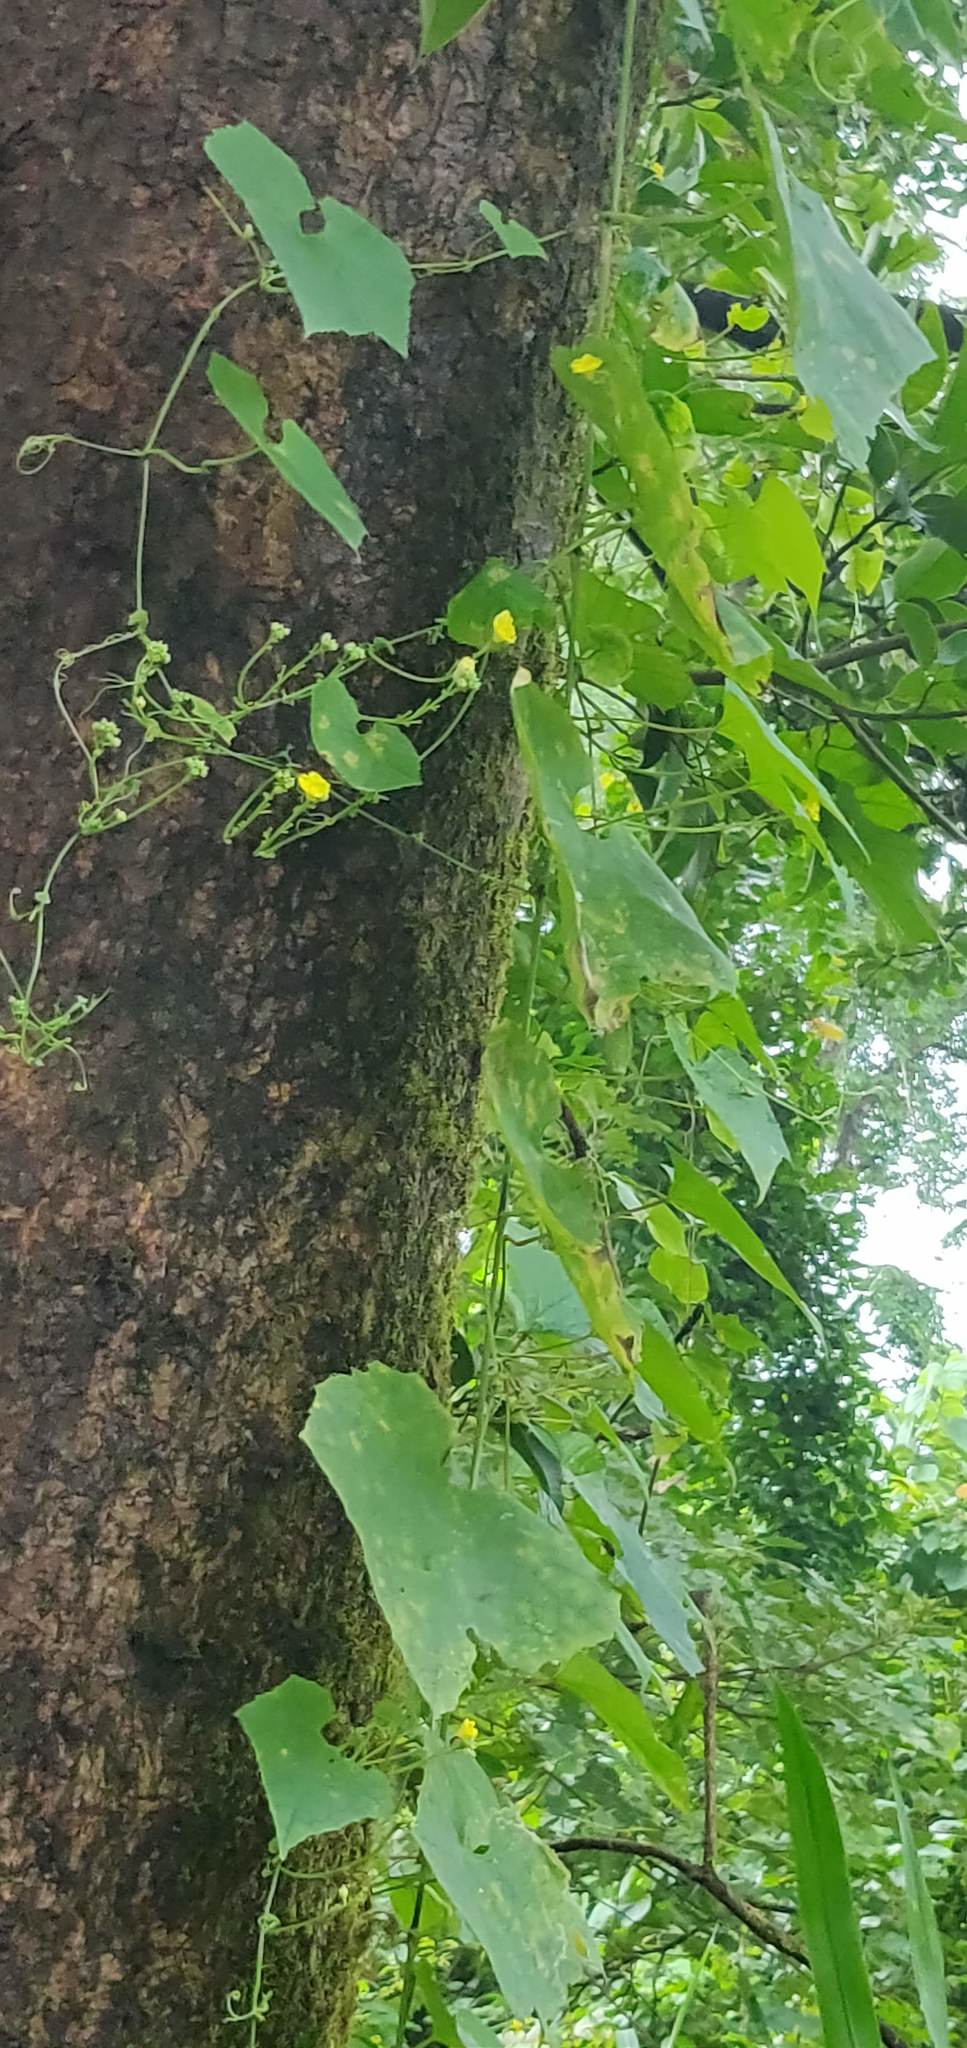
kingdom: Plantae
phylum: Tracheophyta
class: Magnoliopsida
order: Cucurbitales
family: Cucurbitaceae
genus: Luffa
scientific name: Luffa acutangula
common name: Sinkwa towelsponge
